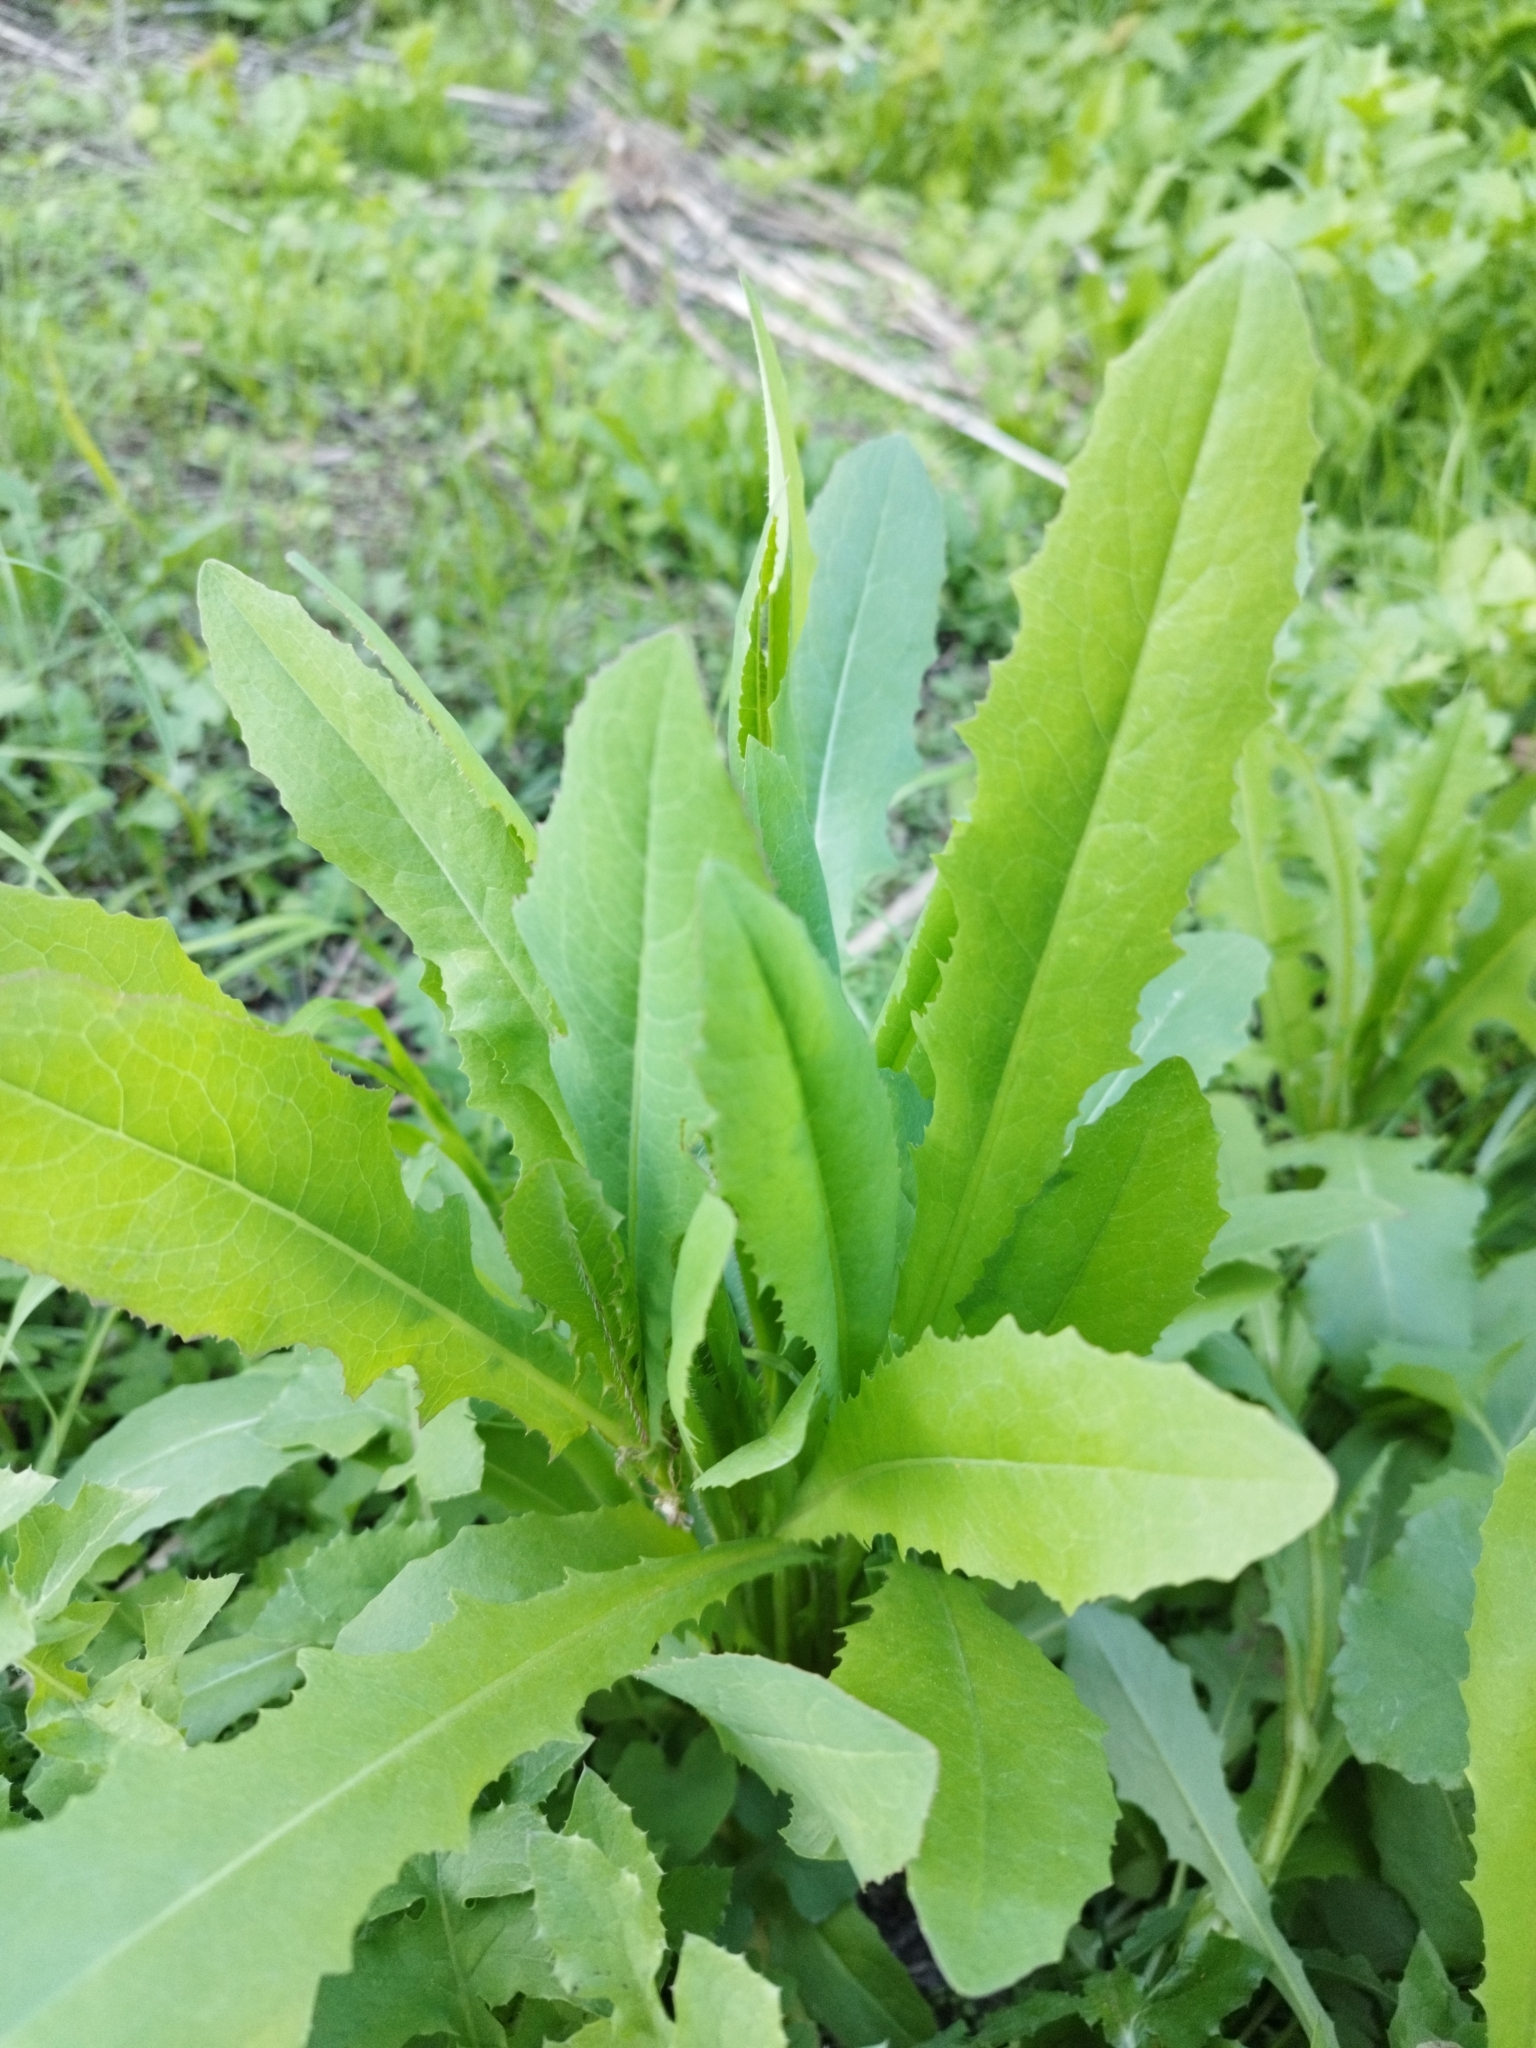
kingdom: Plantae
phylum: Tracheophyta
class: Magnoliopsida
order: Asterales
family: Asteraceae
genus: Lactuca
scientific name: Lactuca serriola
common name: Prickly lettuce
